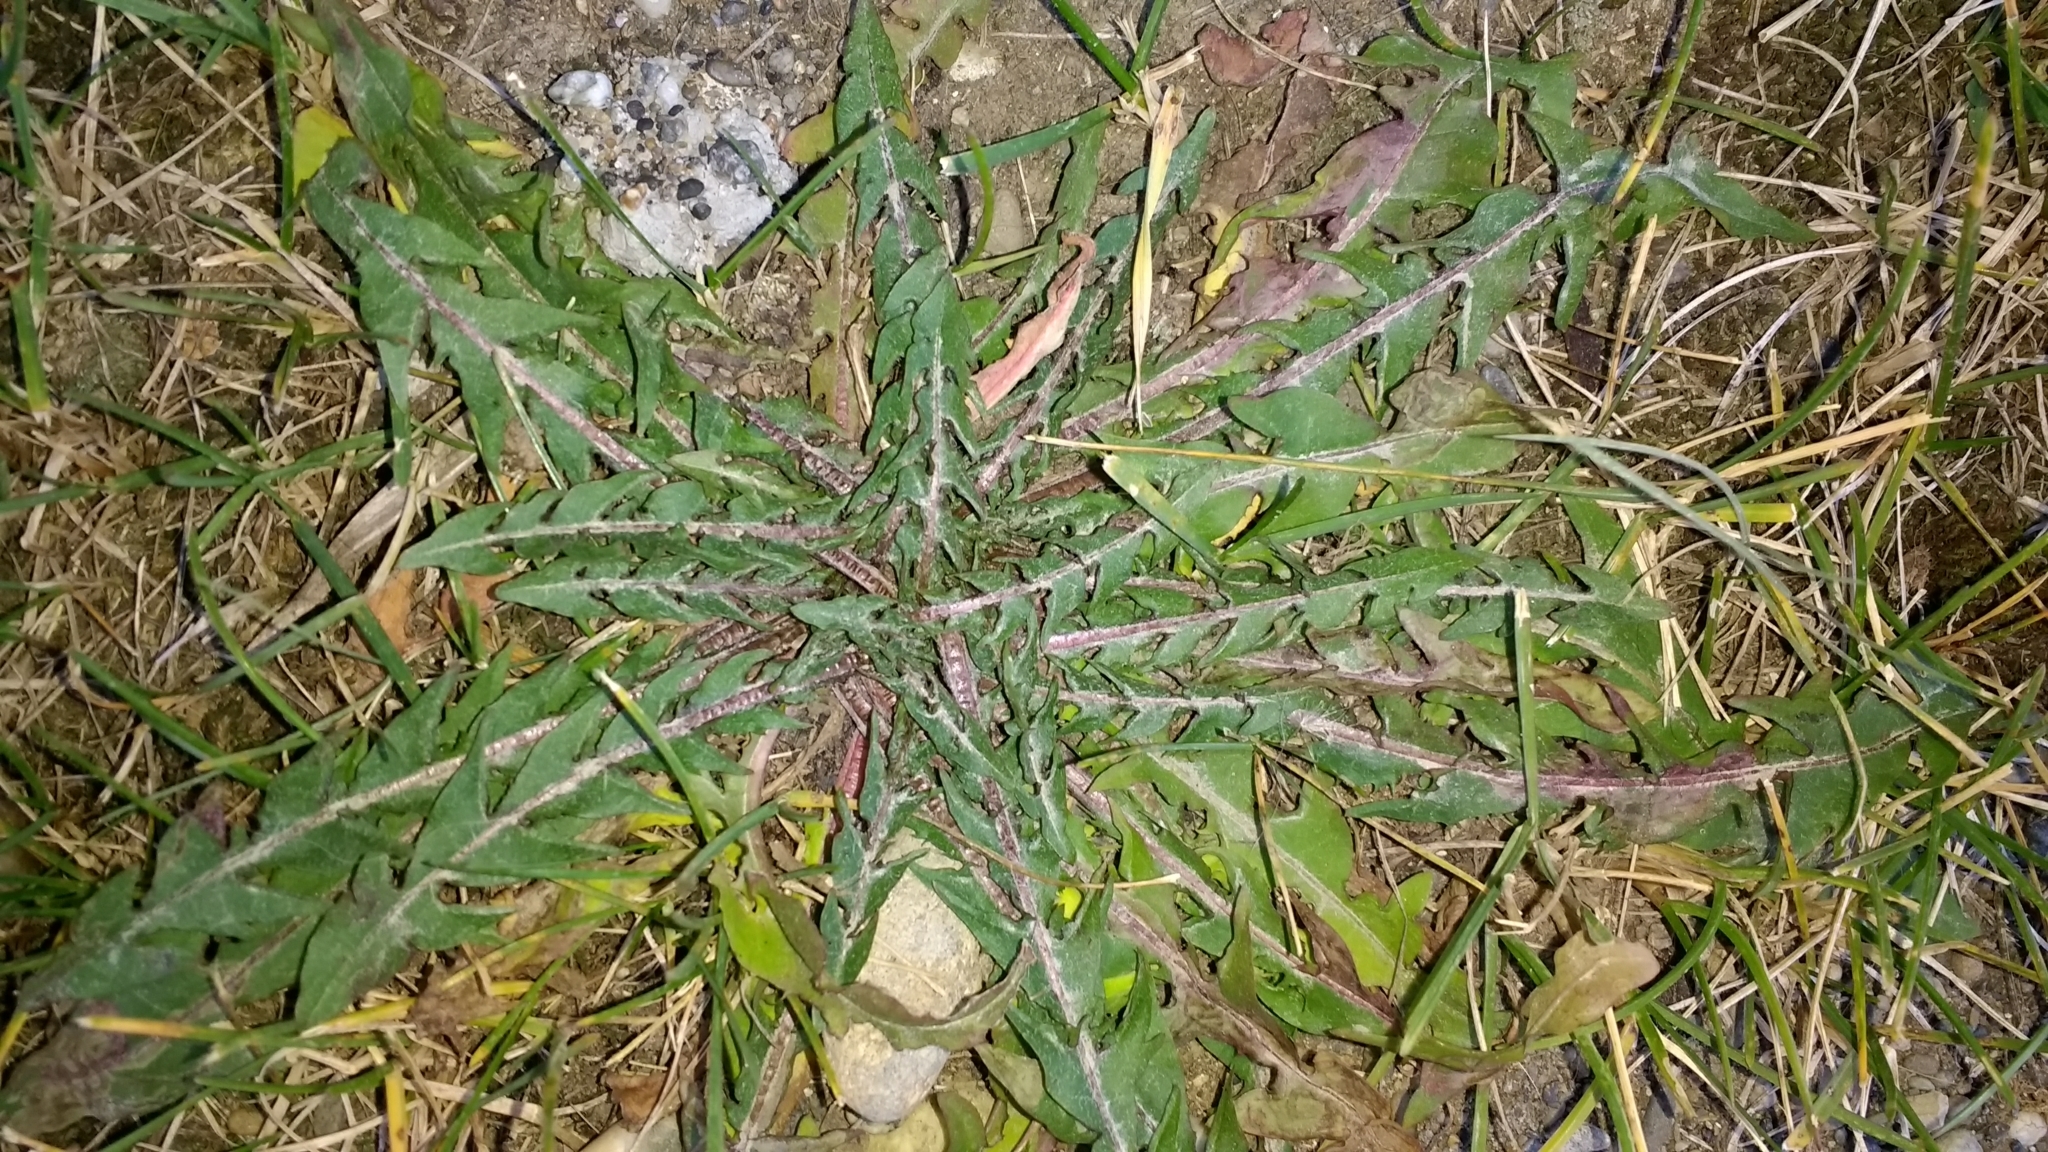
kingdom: Plantae
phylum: Tracheophyta
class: Magnoliopsida
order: Asterales
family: Asteraceae
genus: Taraxacum
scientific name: Taraxacum officinale
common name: Common dandelion
